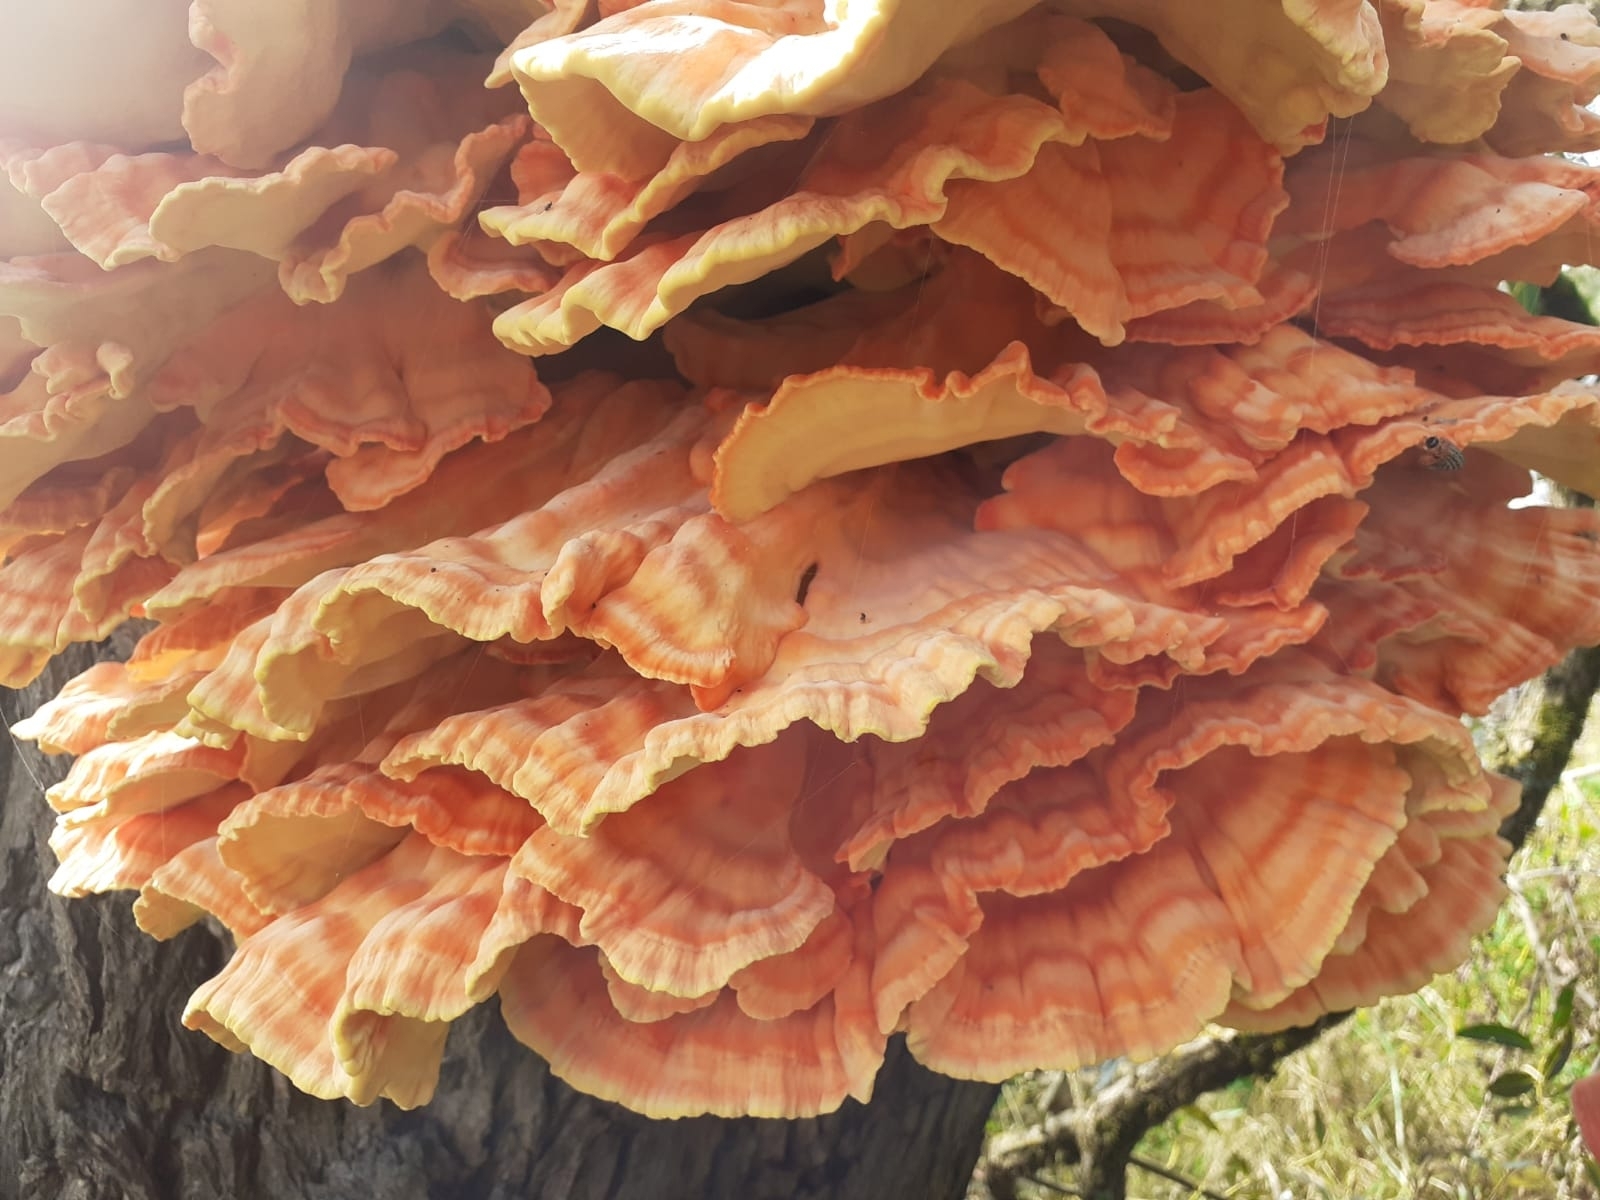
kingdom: Fungi
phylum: Basidiomycota
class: Agaricomycetes
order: Polyporales
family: Laetiporaceae
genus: Laetiporus
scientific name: Laetiporus sulphureus
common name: Chicken of the woods
